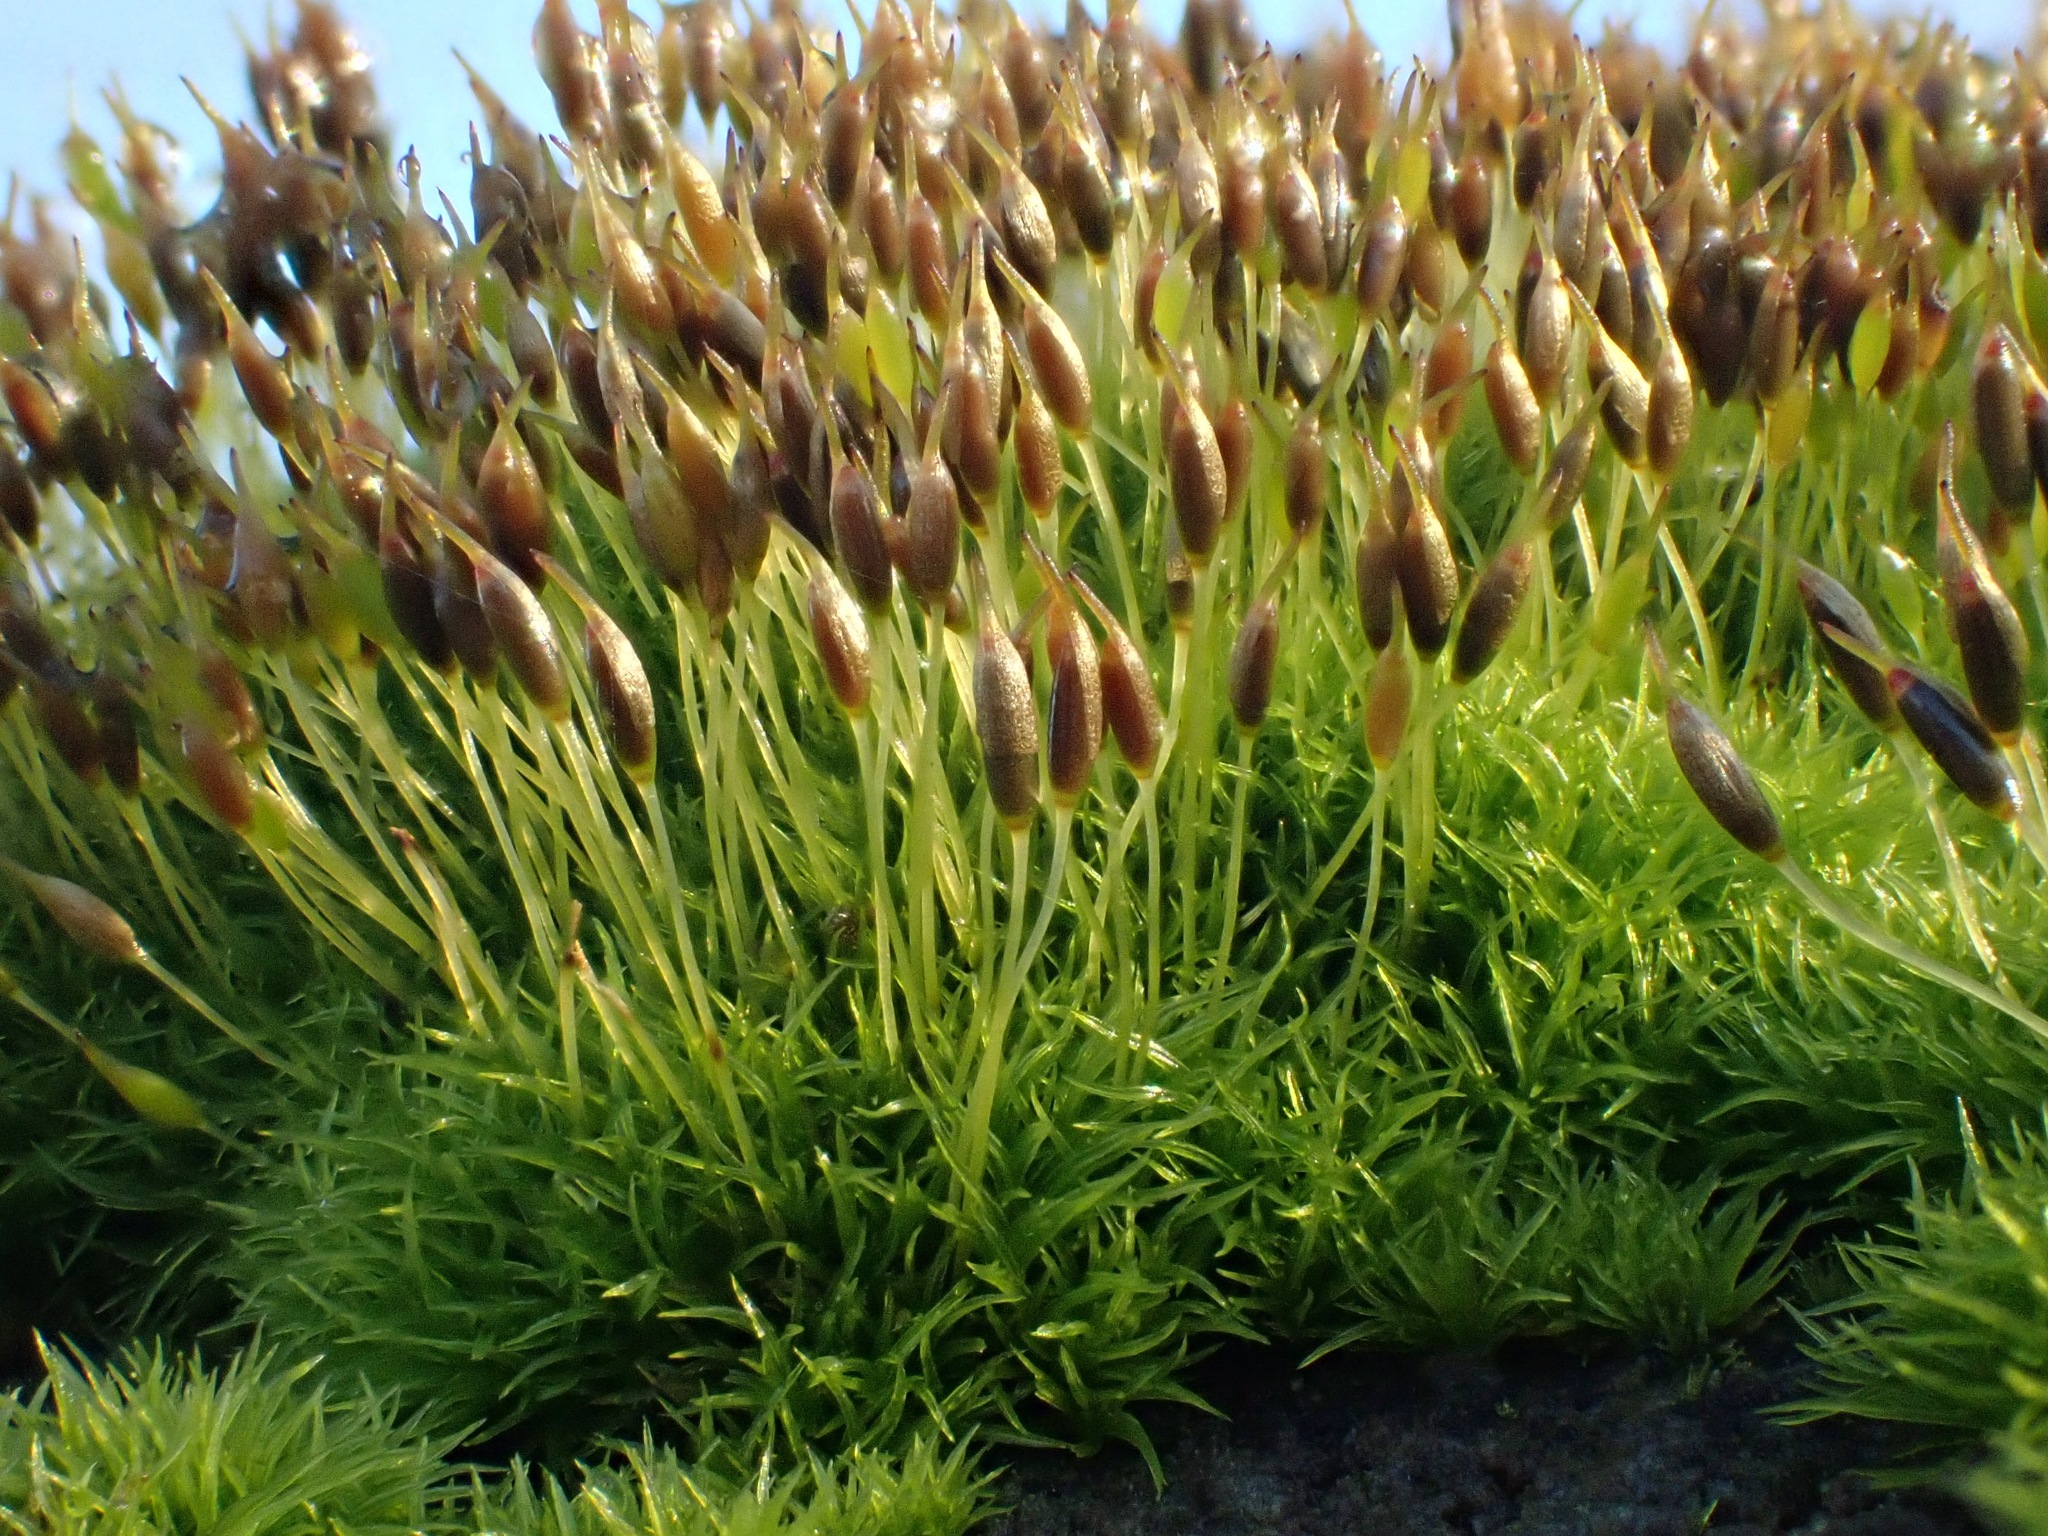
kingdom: Plantae
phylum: Bryophyta
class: Bryopsida
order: Dicranales
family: Rhabdoweisiaceae
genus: Dicranoweisia
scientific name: Dicranoweisia cirrata
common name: Common pincushion
